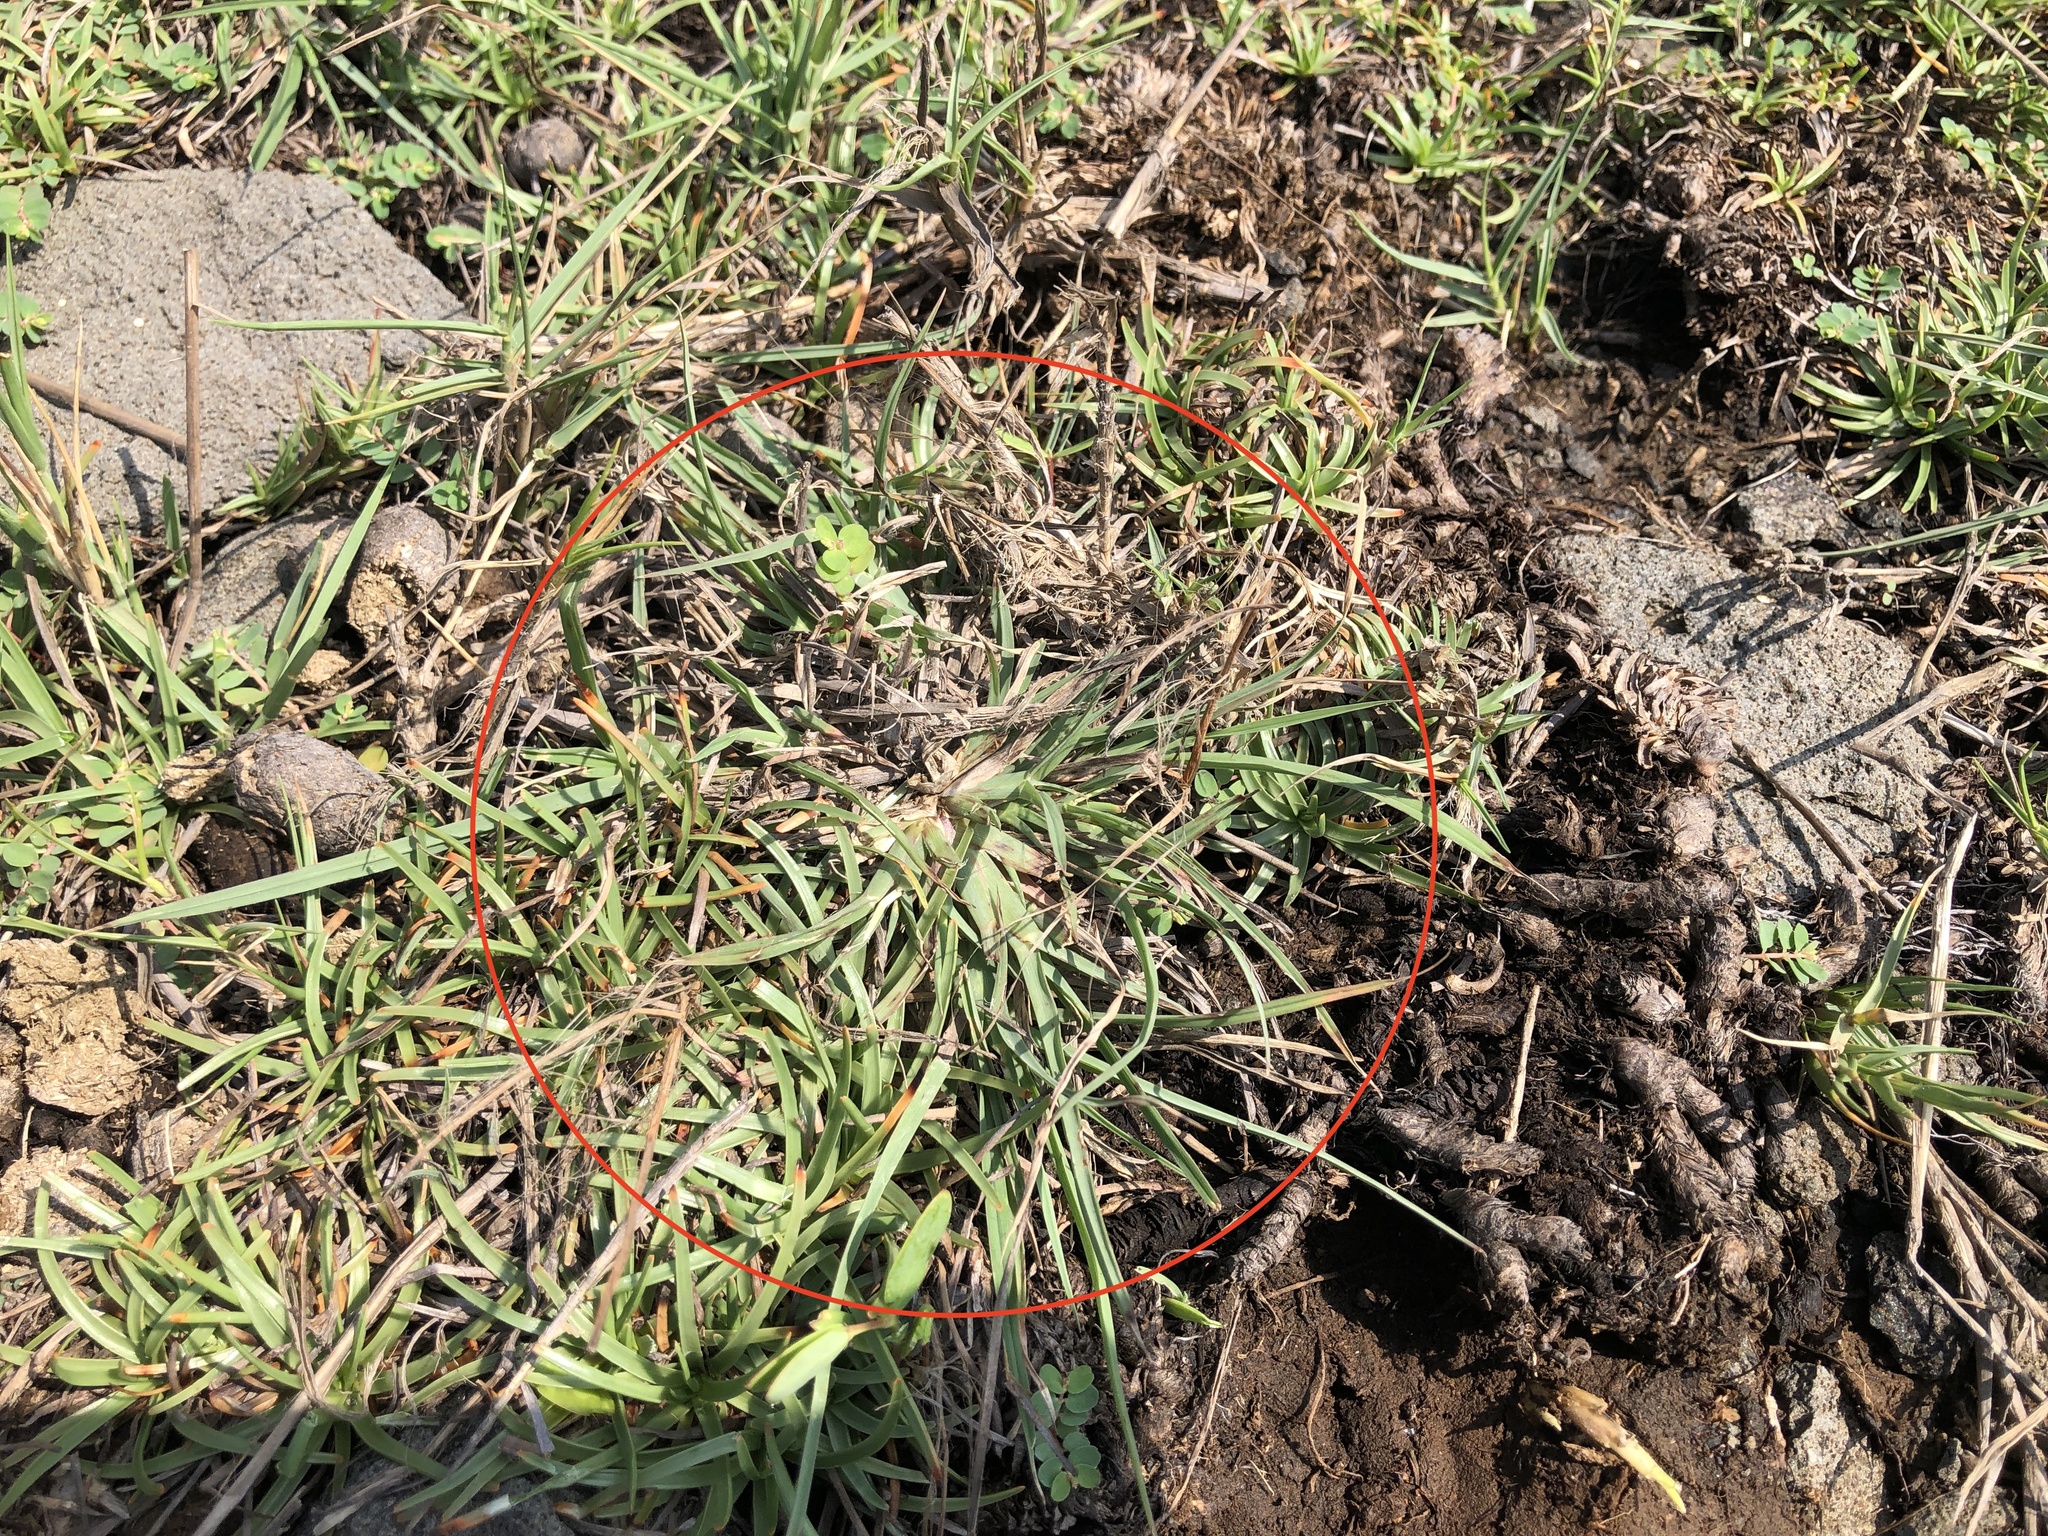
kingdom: Plantae
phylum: Tracheophyta
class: Liliopsida
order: Poales
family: Poaceae
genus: Chloris
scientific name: Chloris formosana
